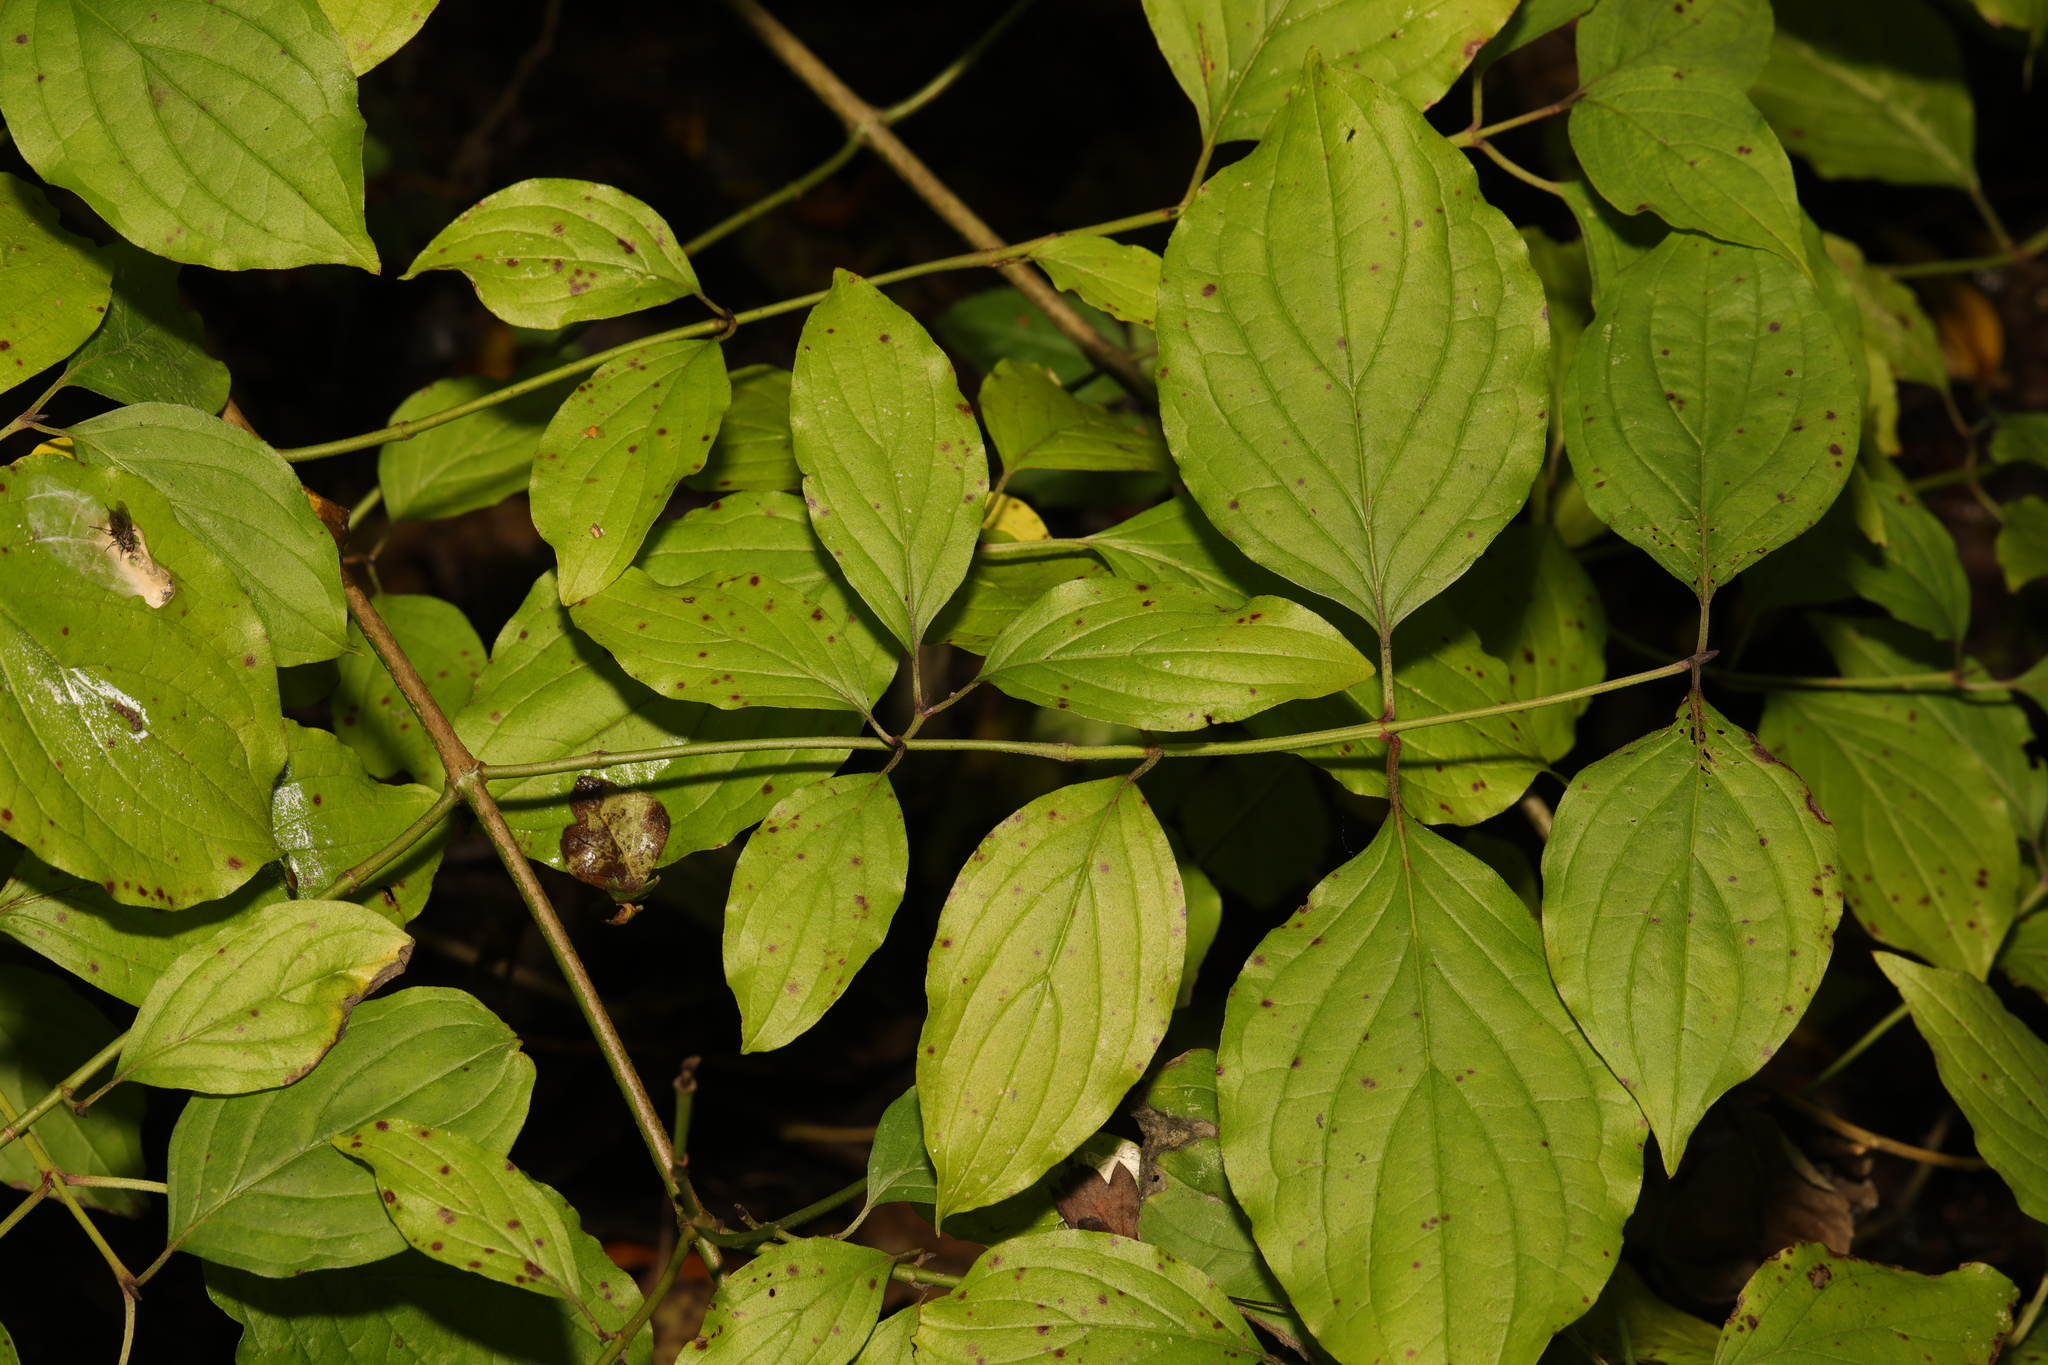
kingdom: Plantae
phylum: Tracheophyta
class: Magnoliopsida
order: Cornales
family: Cornaceae
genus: Cornus
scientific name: Cornus sanguinea
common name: Dogwood
